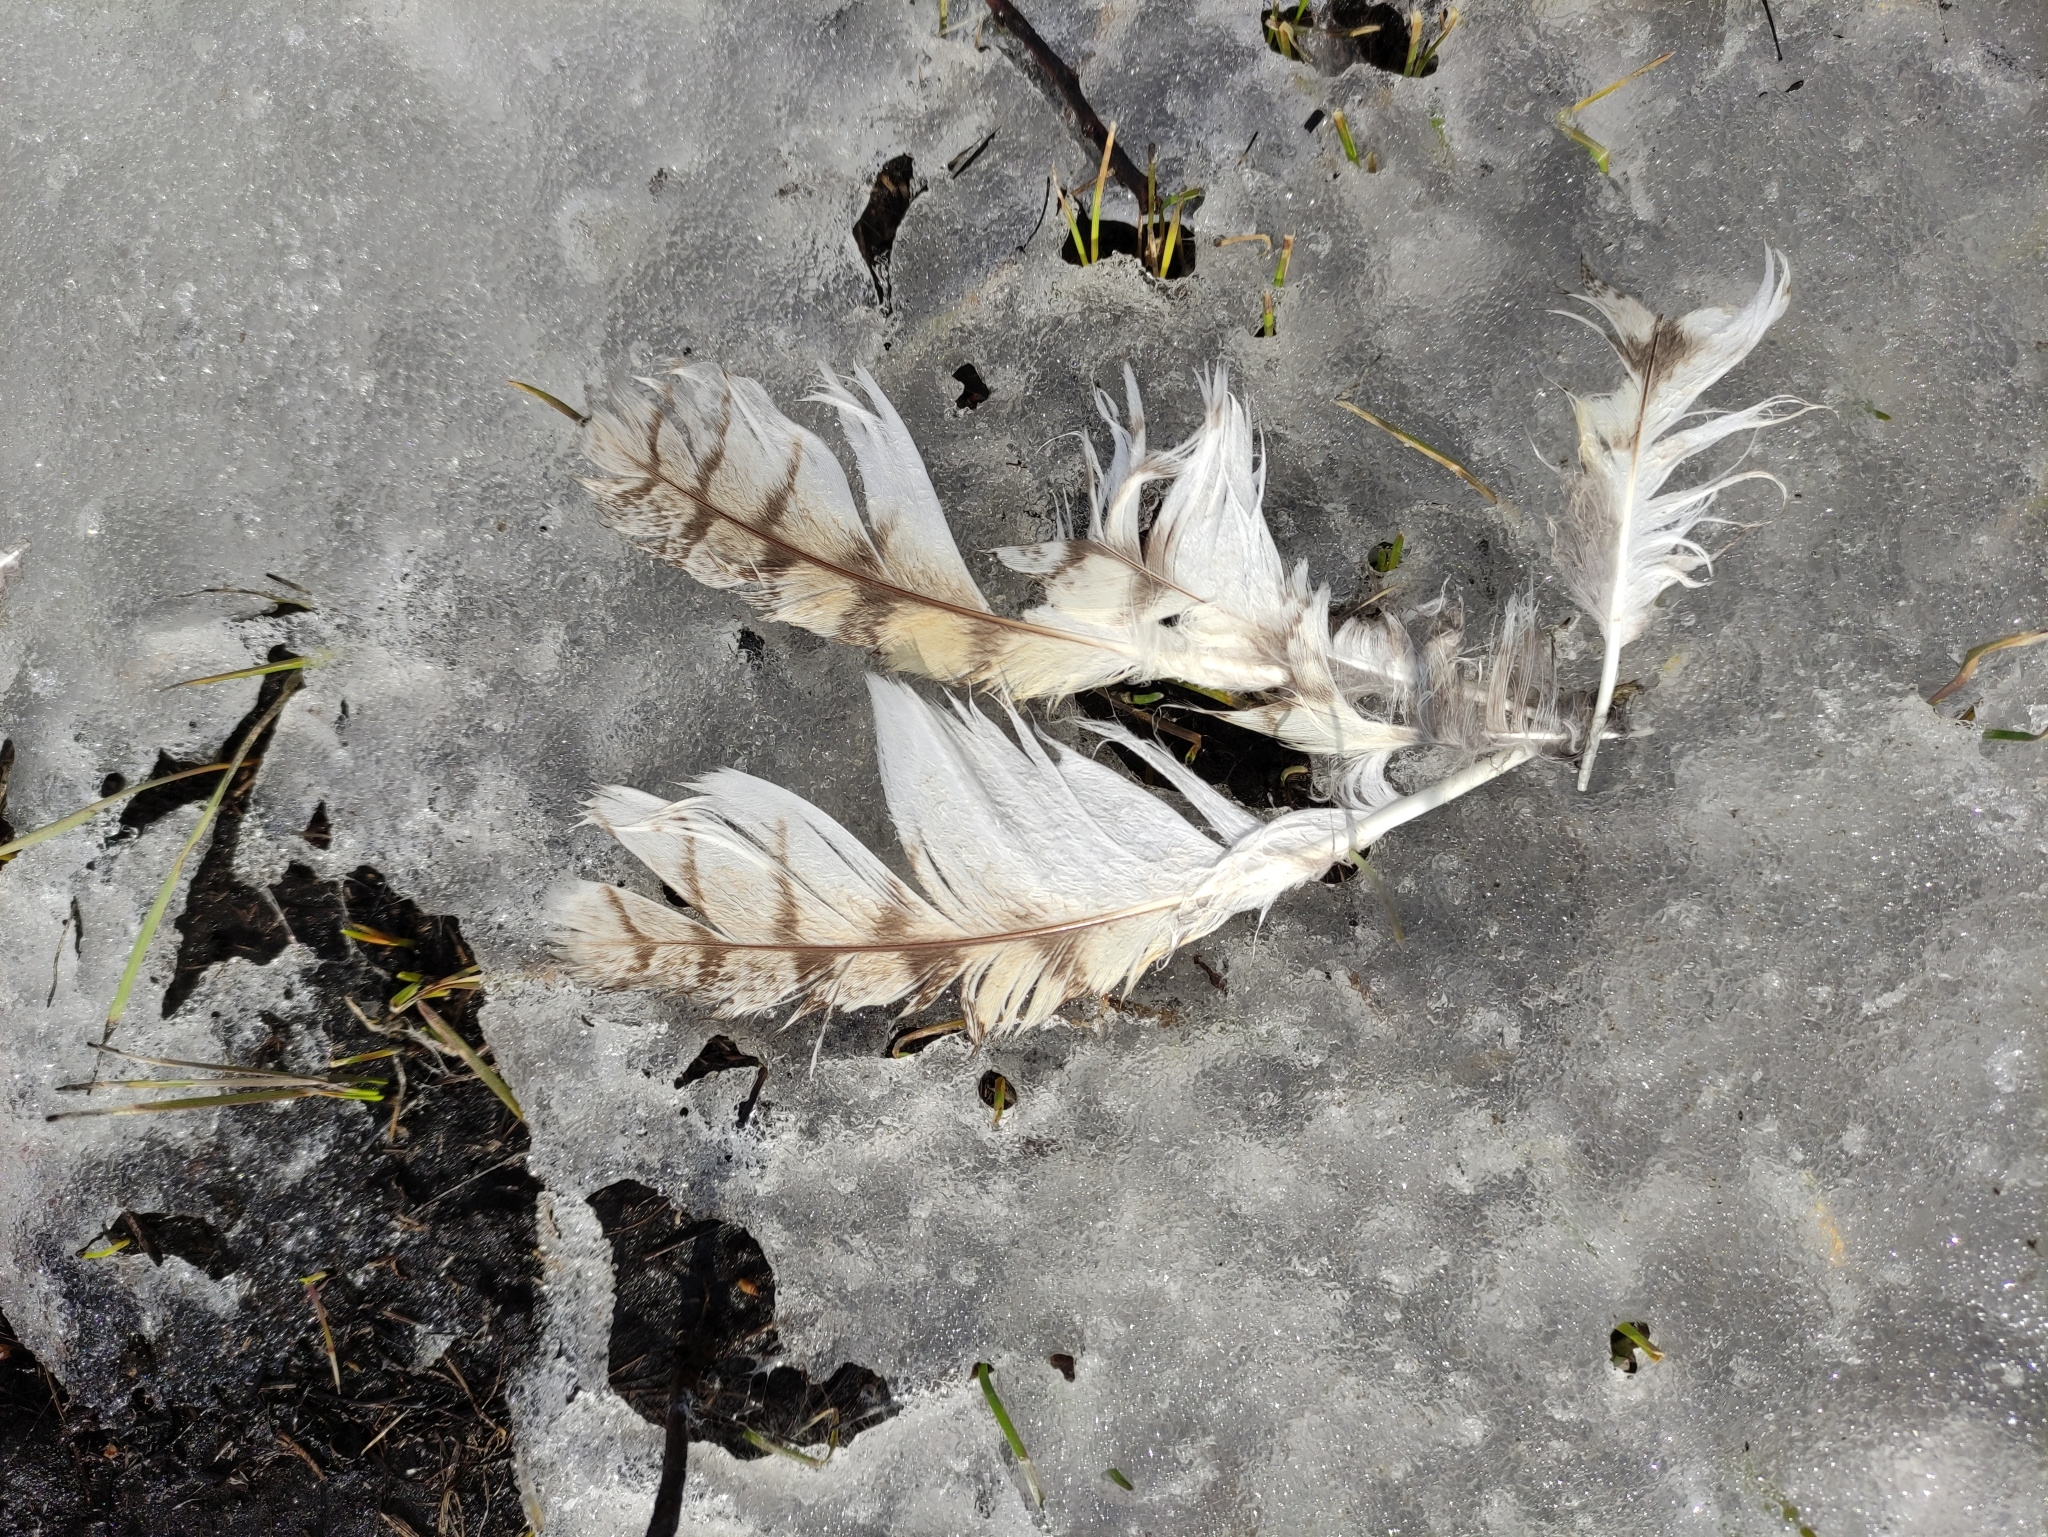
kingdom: Animalia
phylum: Chordata
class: Aves
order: Strigiformes
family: Strigidae
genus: Asio
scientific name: Asio otus
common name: Long-eared owl
